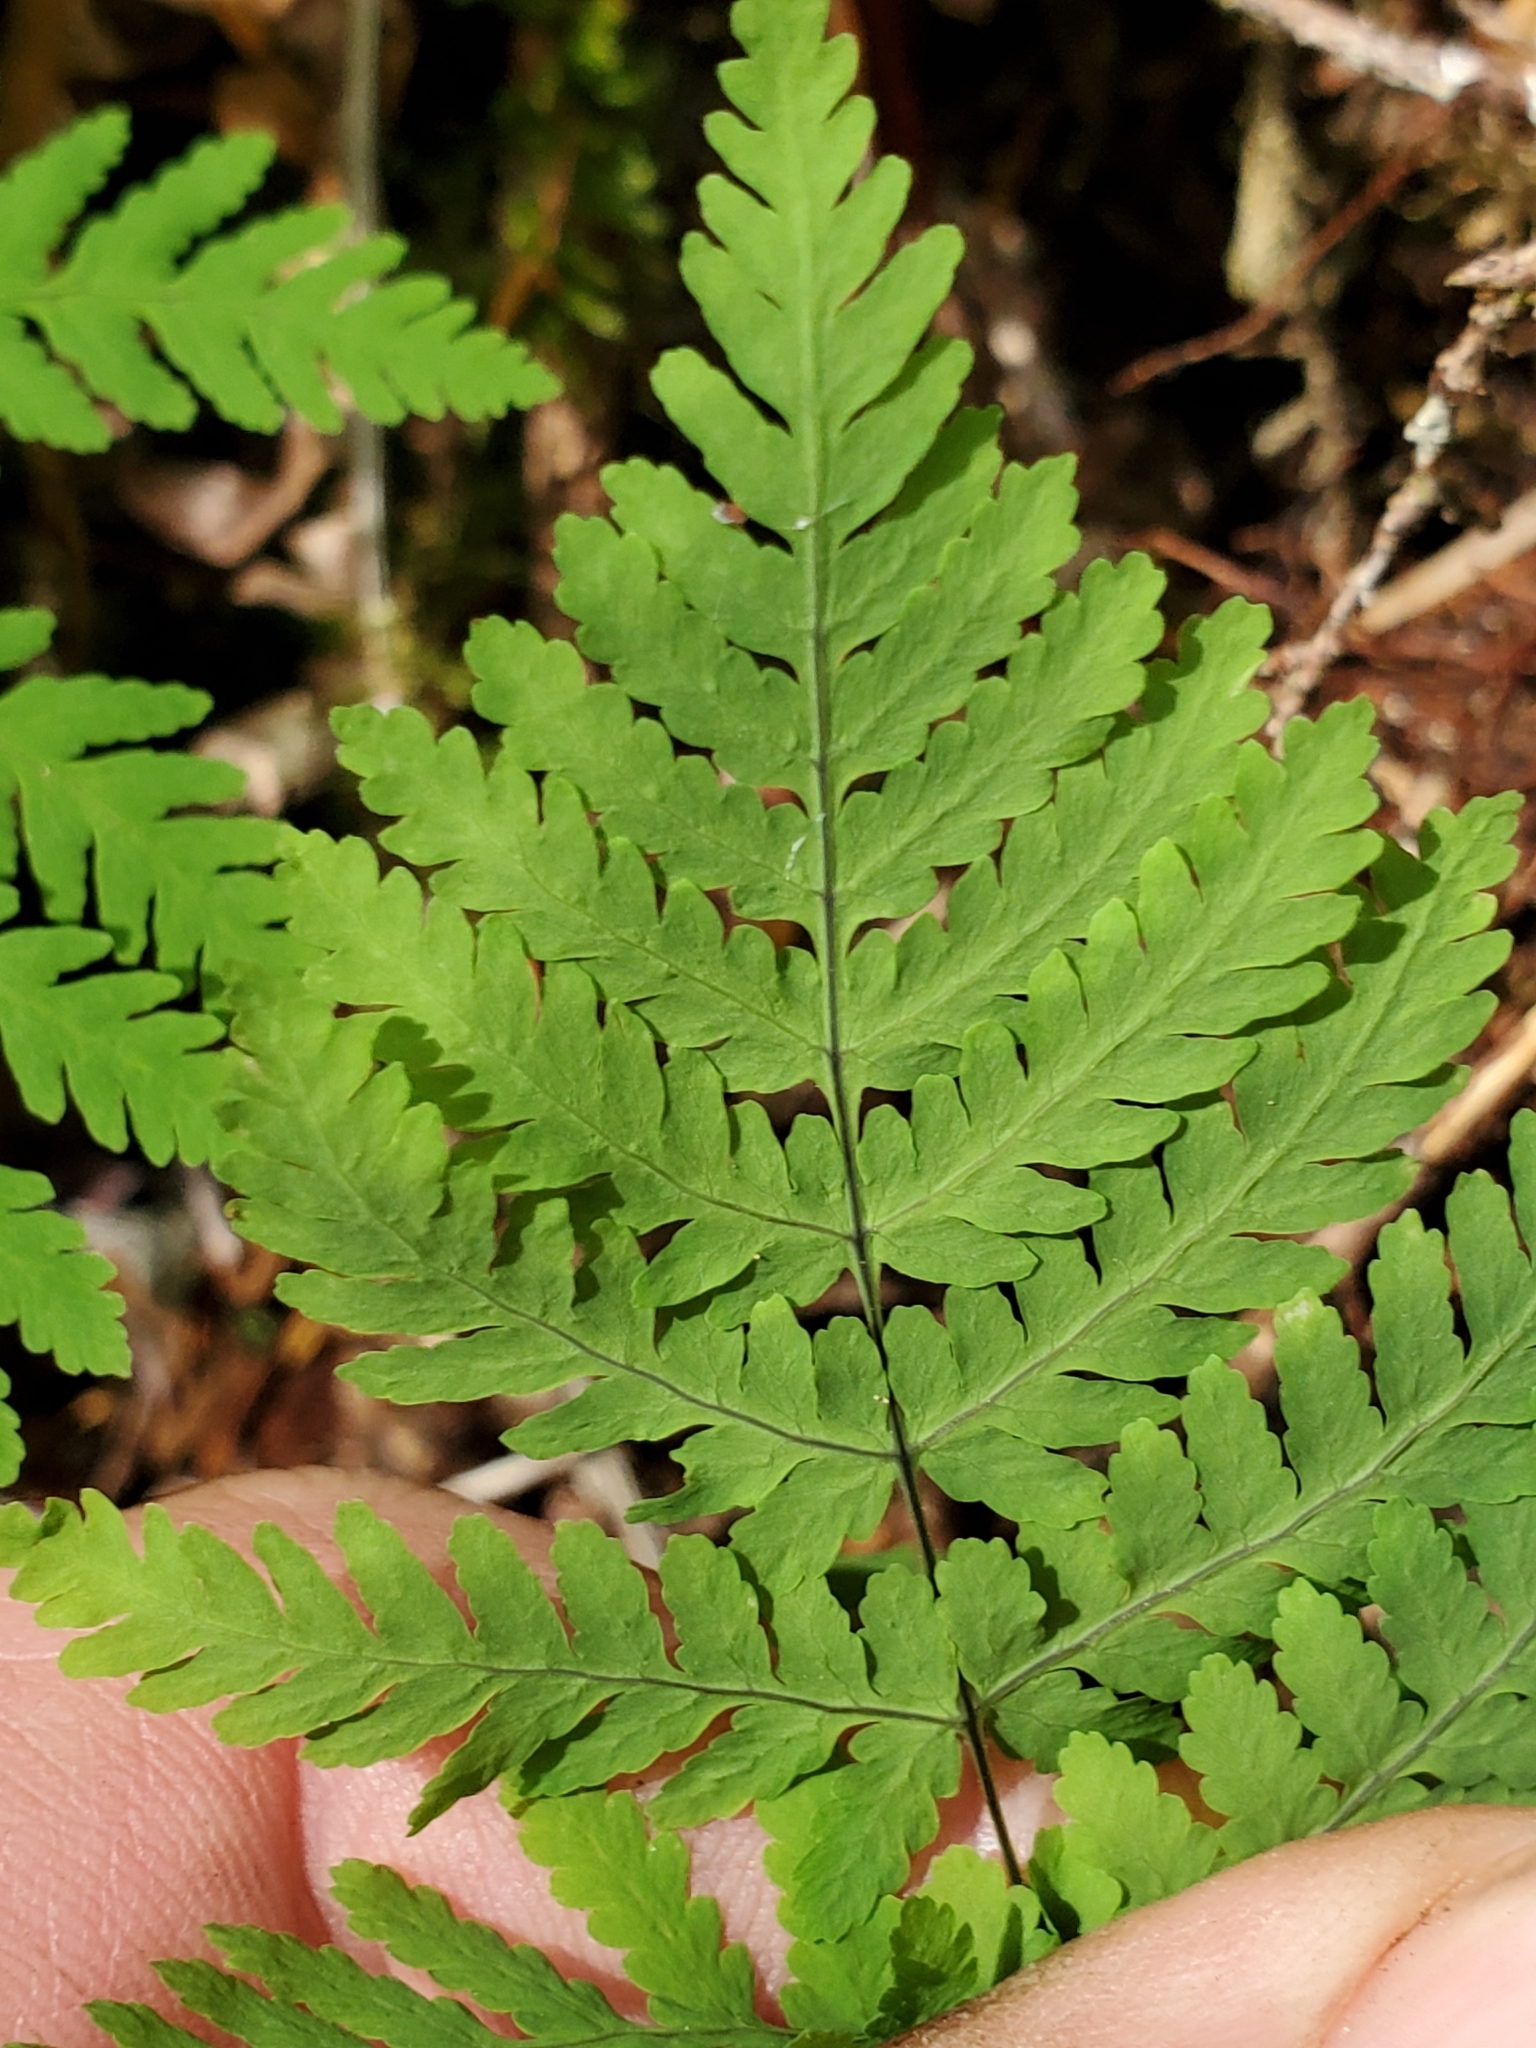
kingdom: Plantae
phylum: Tracheophyta
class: Polypodiopsida
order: Polypodiales
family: Cystopteridaceae
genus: Gymnocarpium
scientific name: Gymnocarpium dryopteris
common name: Oak fern
